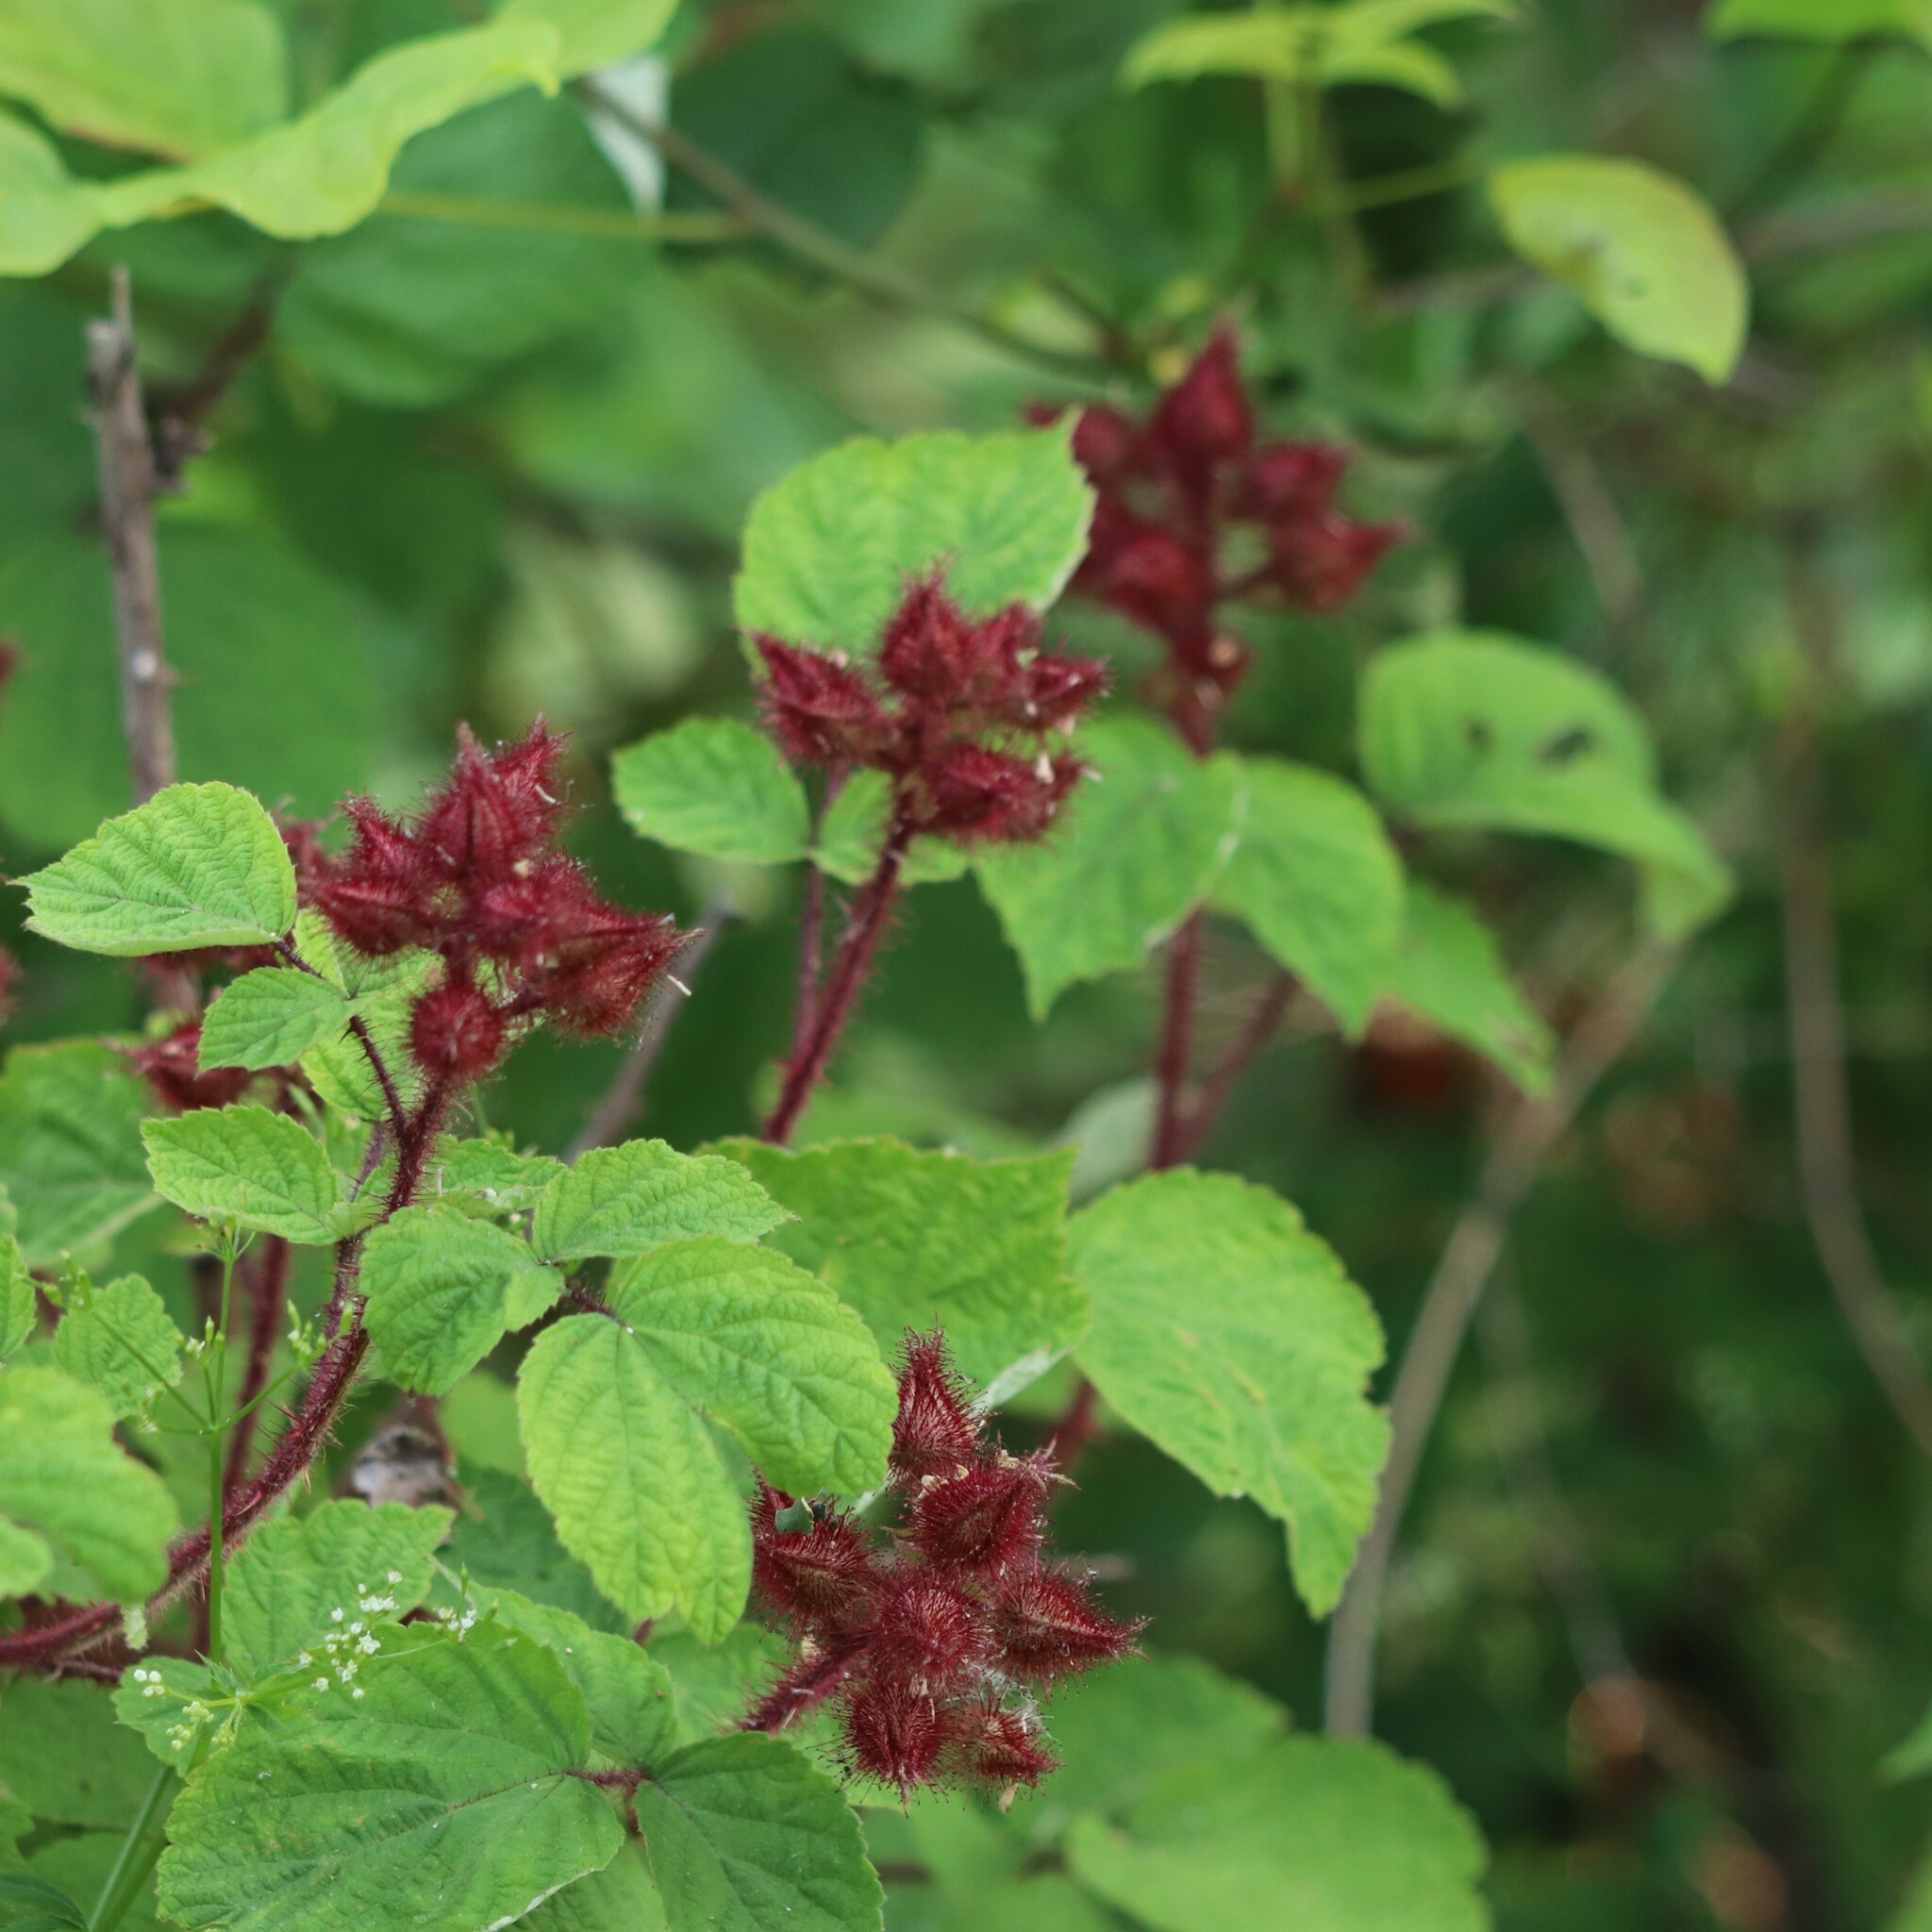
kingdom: Plantae
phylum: Tracheophyta
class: Magnoliopsida
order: Rosales
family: Rosaceae
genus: Rubus
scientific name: Rubus phoenicolasius
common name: Japanese wineberry
